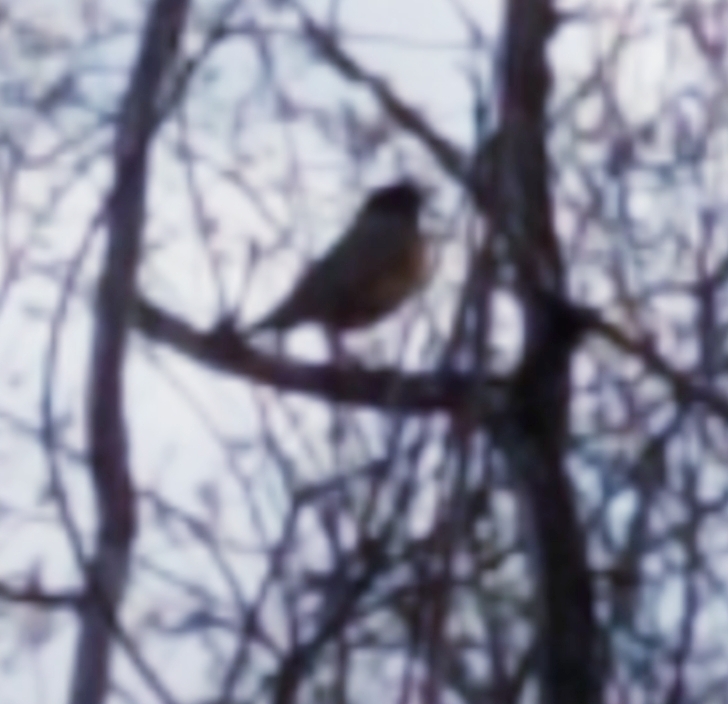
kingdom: Animalia
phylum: Chordata
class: Aves
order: Passeriformes
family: Turdidae
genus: Turdus
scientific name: Turdus migratorius
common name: American robin
